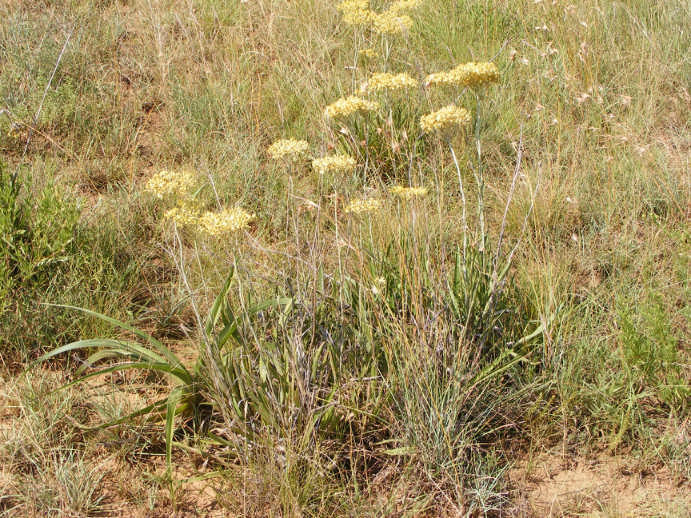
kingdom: Plantae
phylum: Tracheophyta
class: Magnoliopsida
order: Asterales
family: Asteraceae
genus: Helichrysum
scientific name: Helichrysum nudifolium
